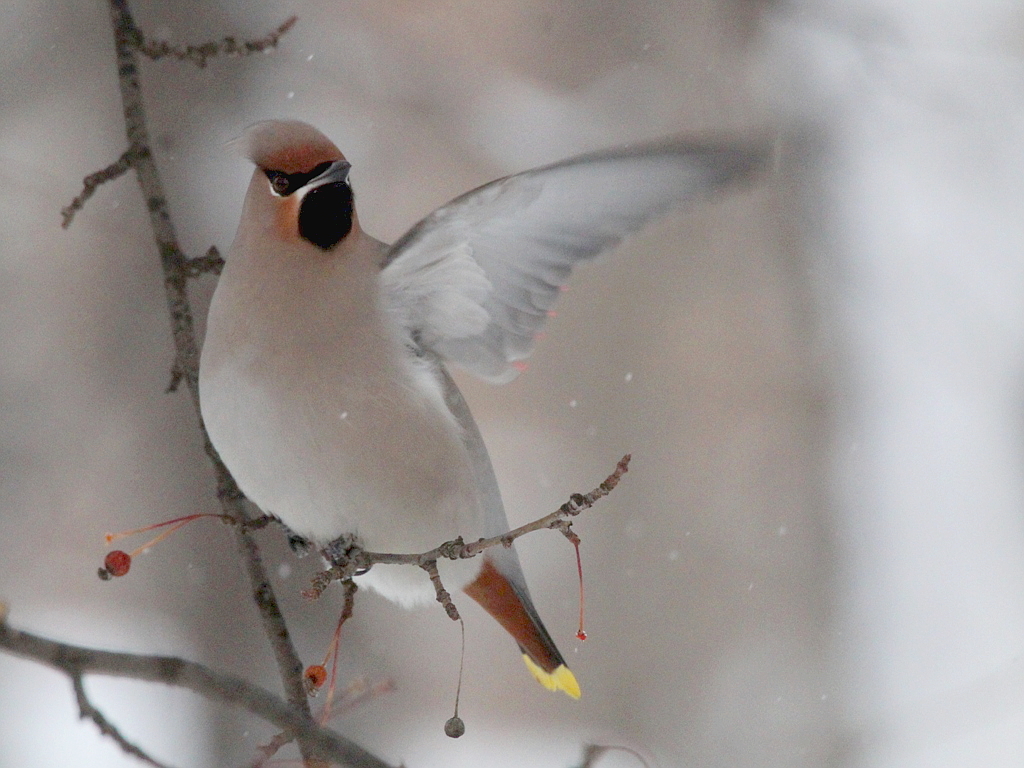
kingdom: Animalia
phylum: Chordata
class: Aves
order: Passeriformes
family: Bombycillidae
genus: Bombycilla
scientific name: Bombycilla garrulus
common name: Bohemian waxwing
